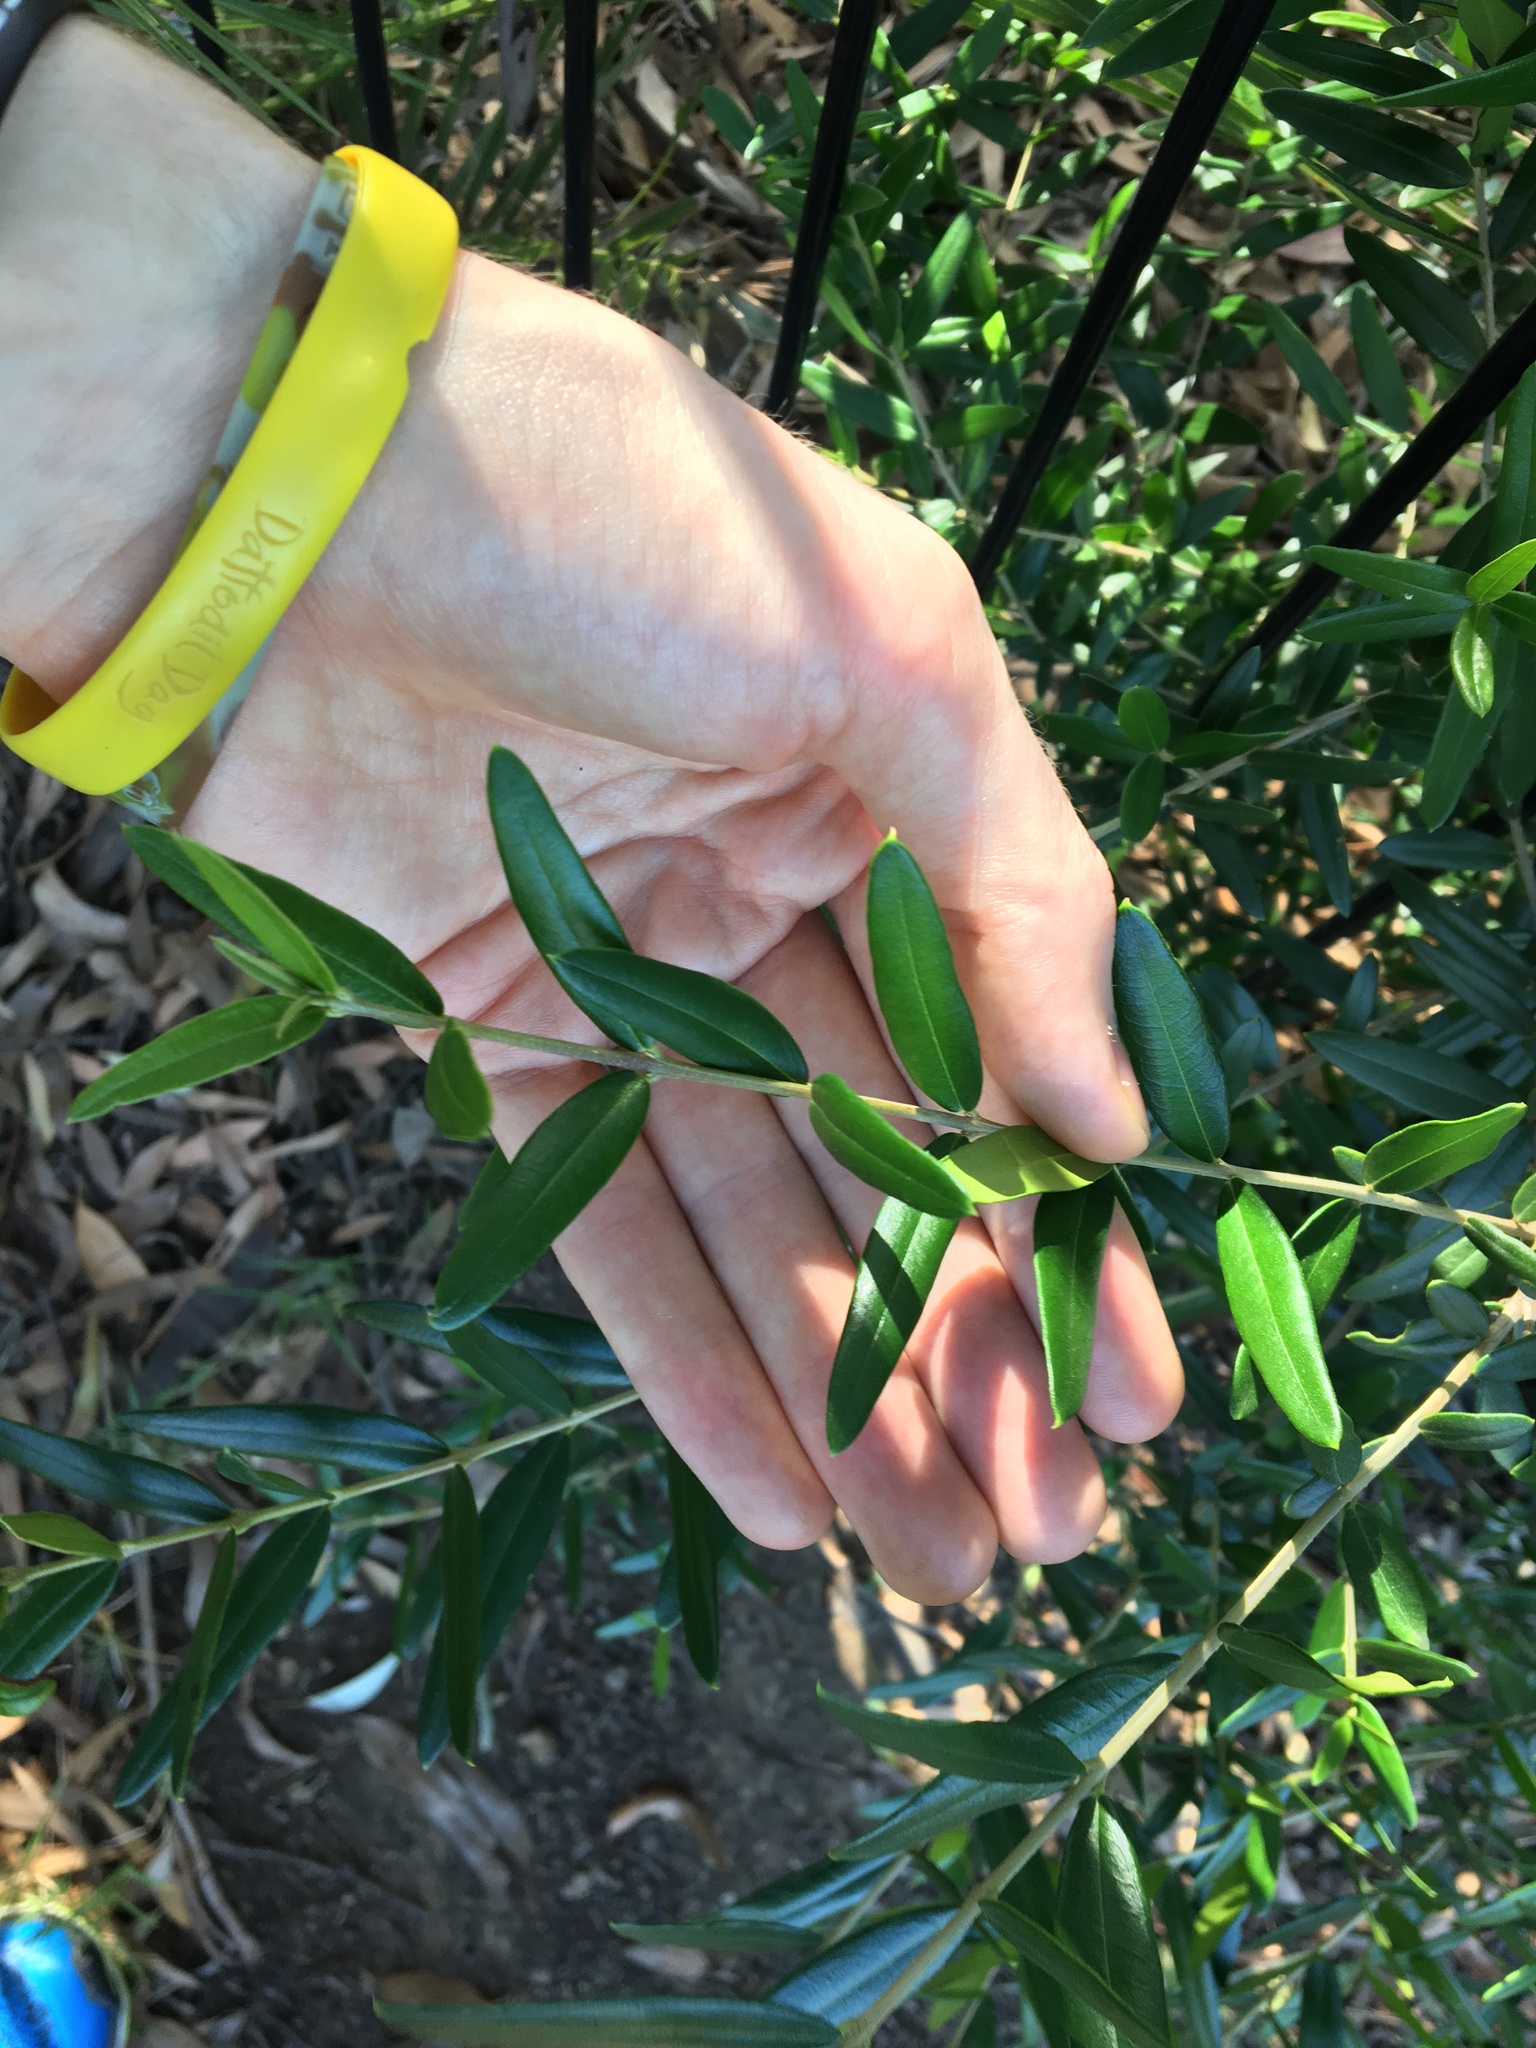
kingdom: Plantae
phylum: Tracheophyta
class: Magnoliopsida
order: Lamiales
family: Oleaceae
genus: Olea
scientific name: Olea europaea
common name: Olive
